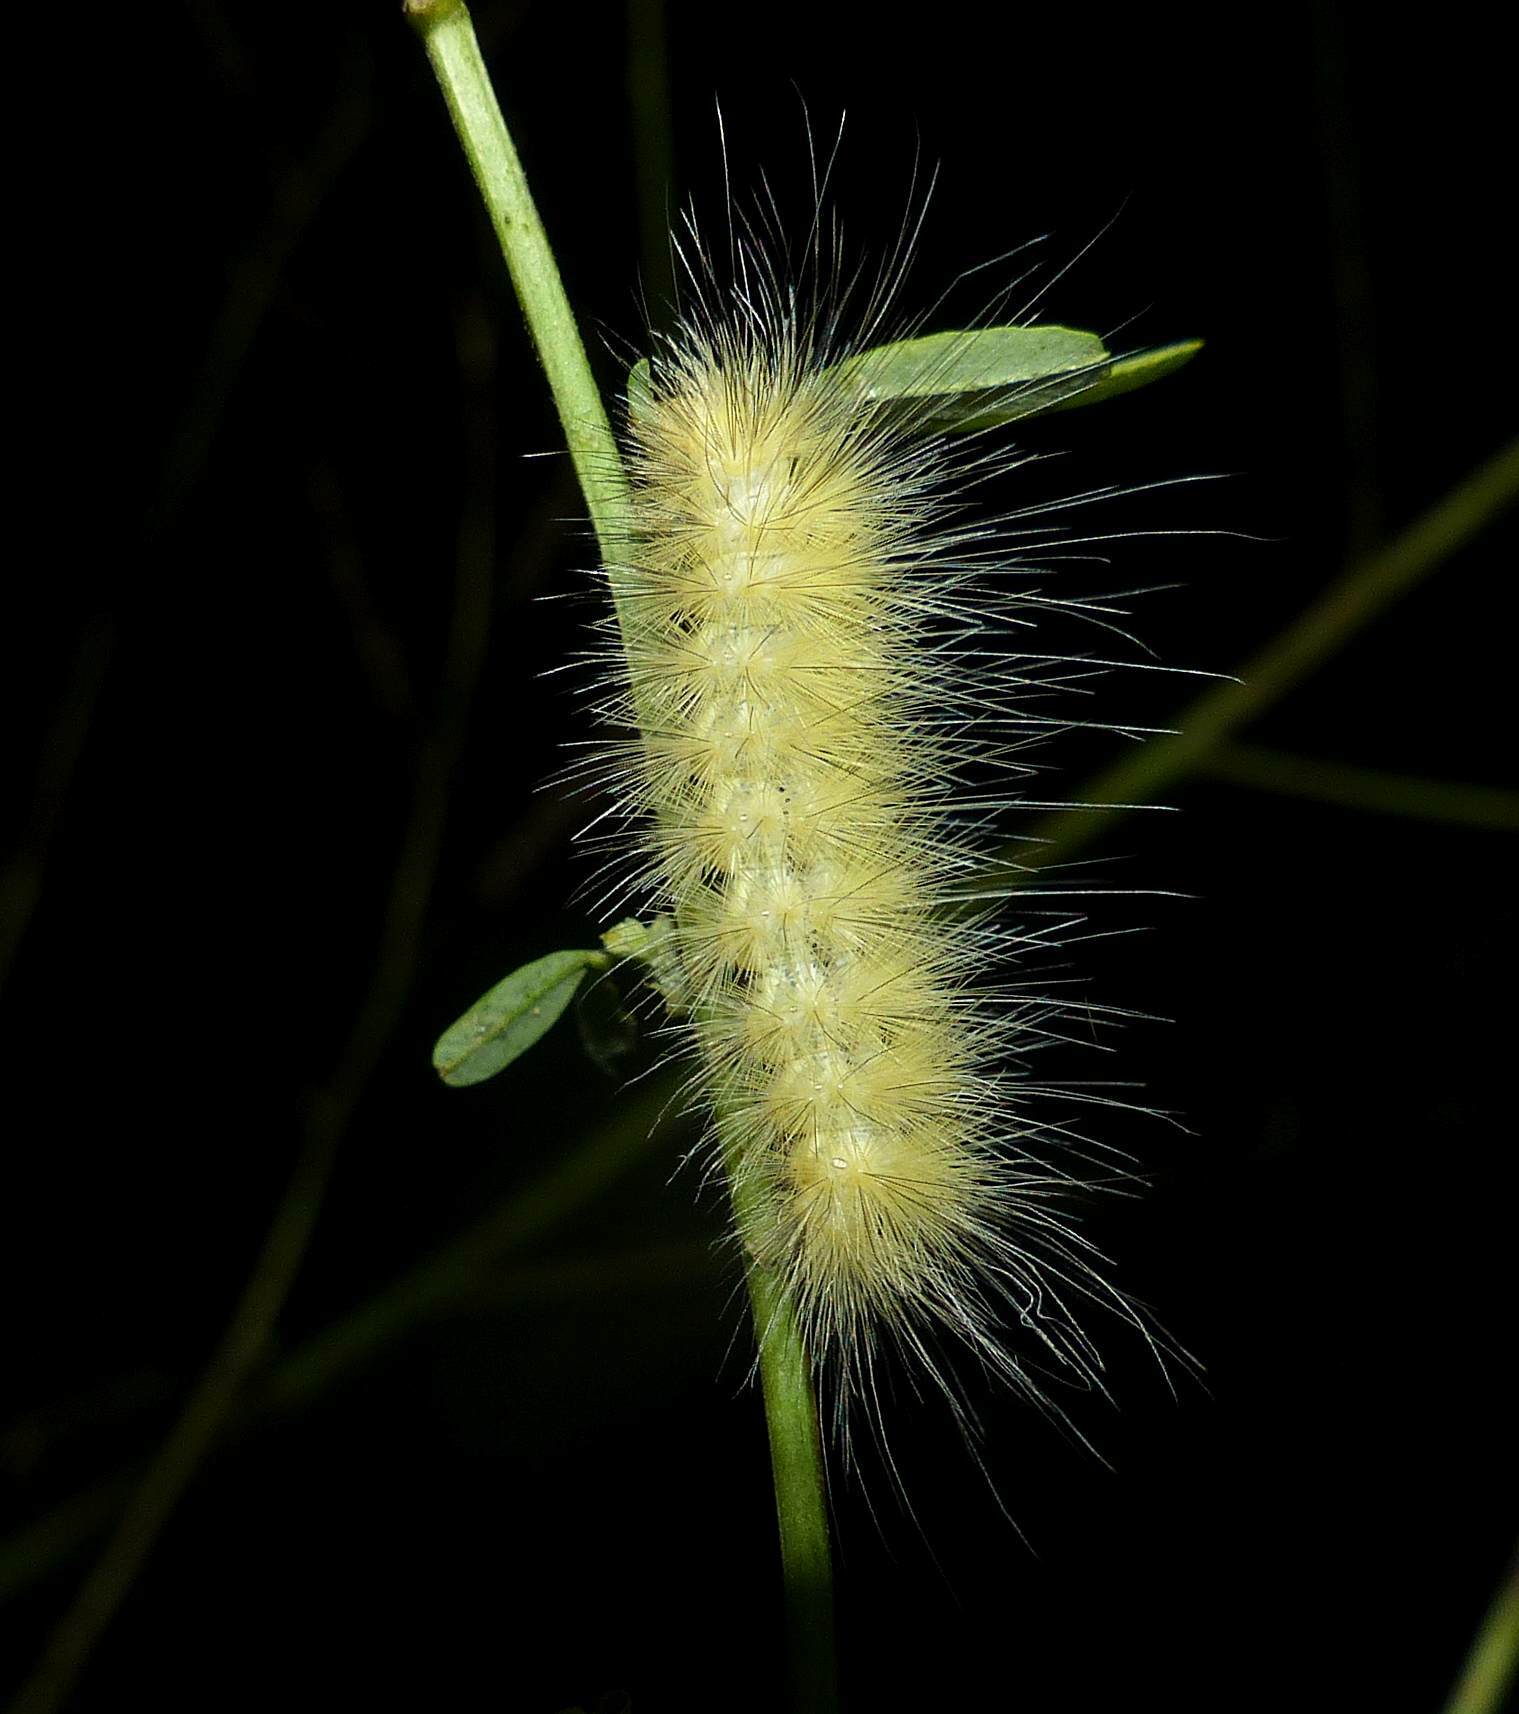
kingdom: Animalia
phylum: Arthropoda
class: Insecta
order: Lepidoptera
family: Erebidae
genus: Spilosoma
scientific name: Spilosoma virginica
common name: Virginia tiger moth
